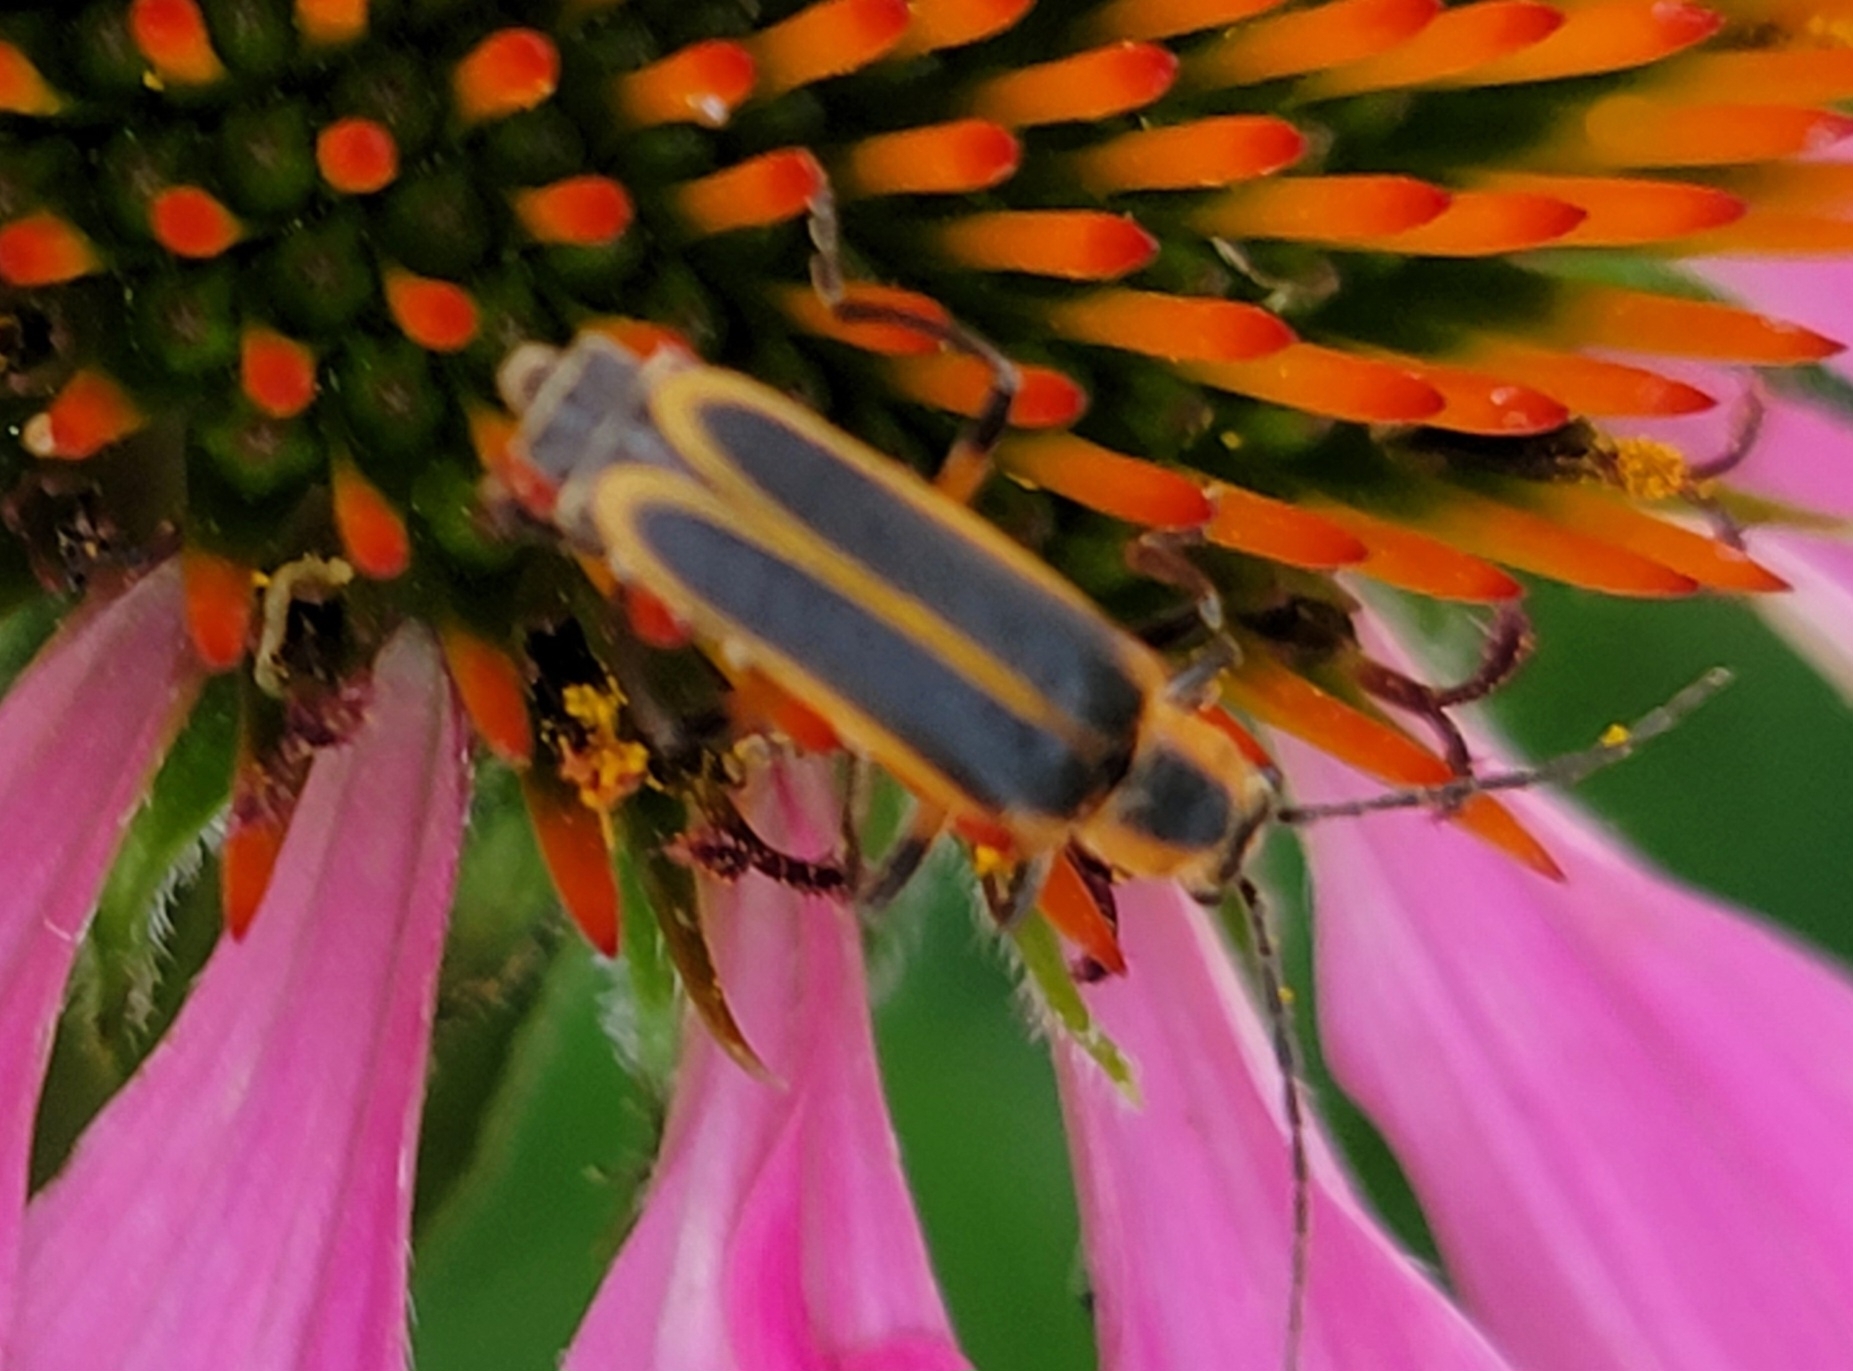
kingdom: Animalia
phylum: Arthropoda
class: Insecta
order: Coleoptera
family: Cantharidae
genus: Chauliognathus
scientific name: Chauliognathus marginatus
